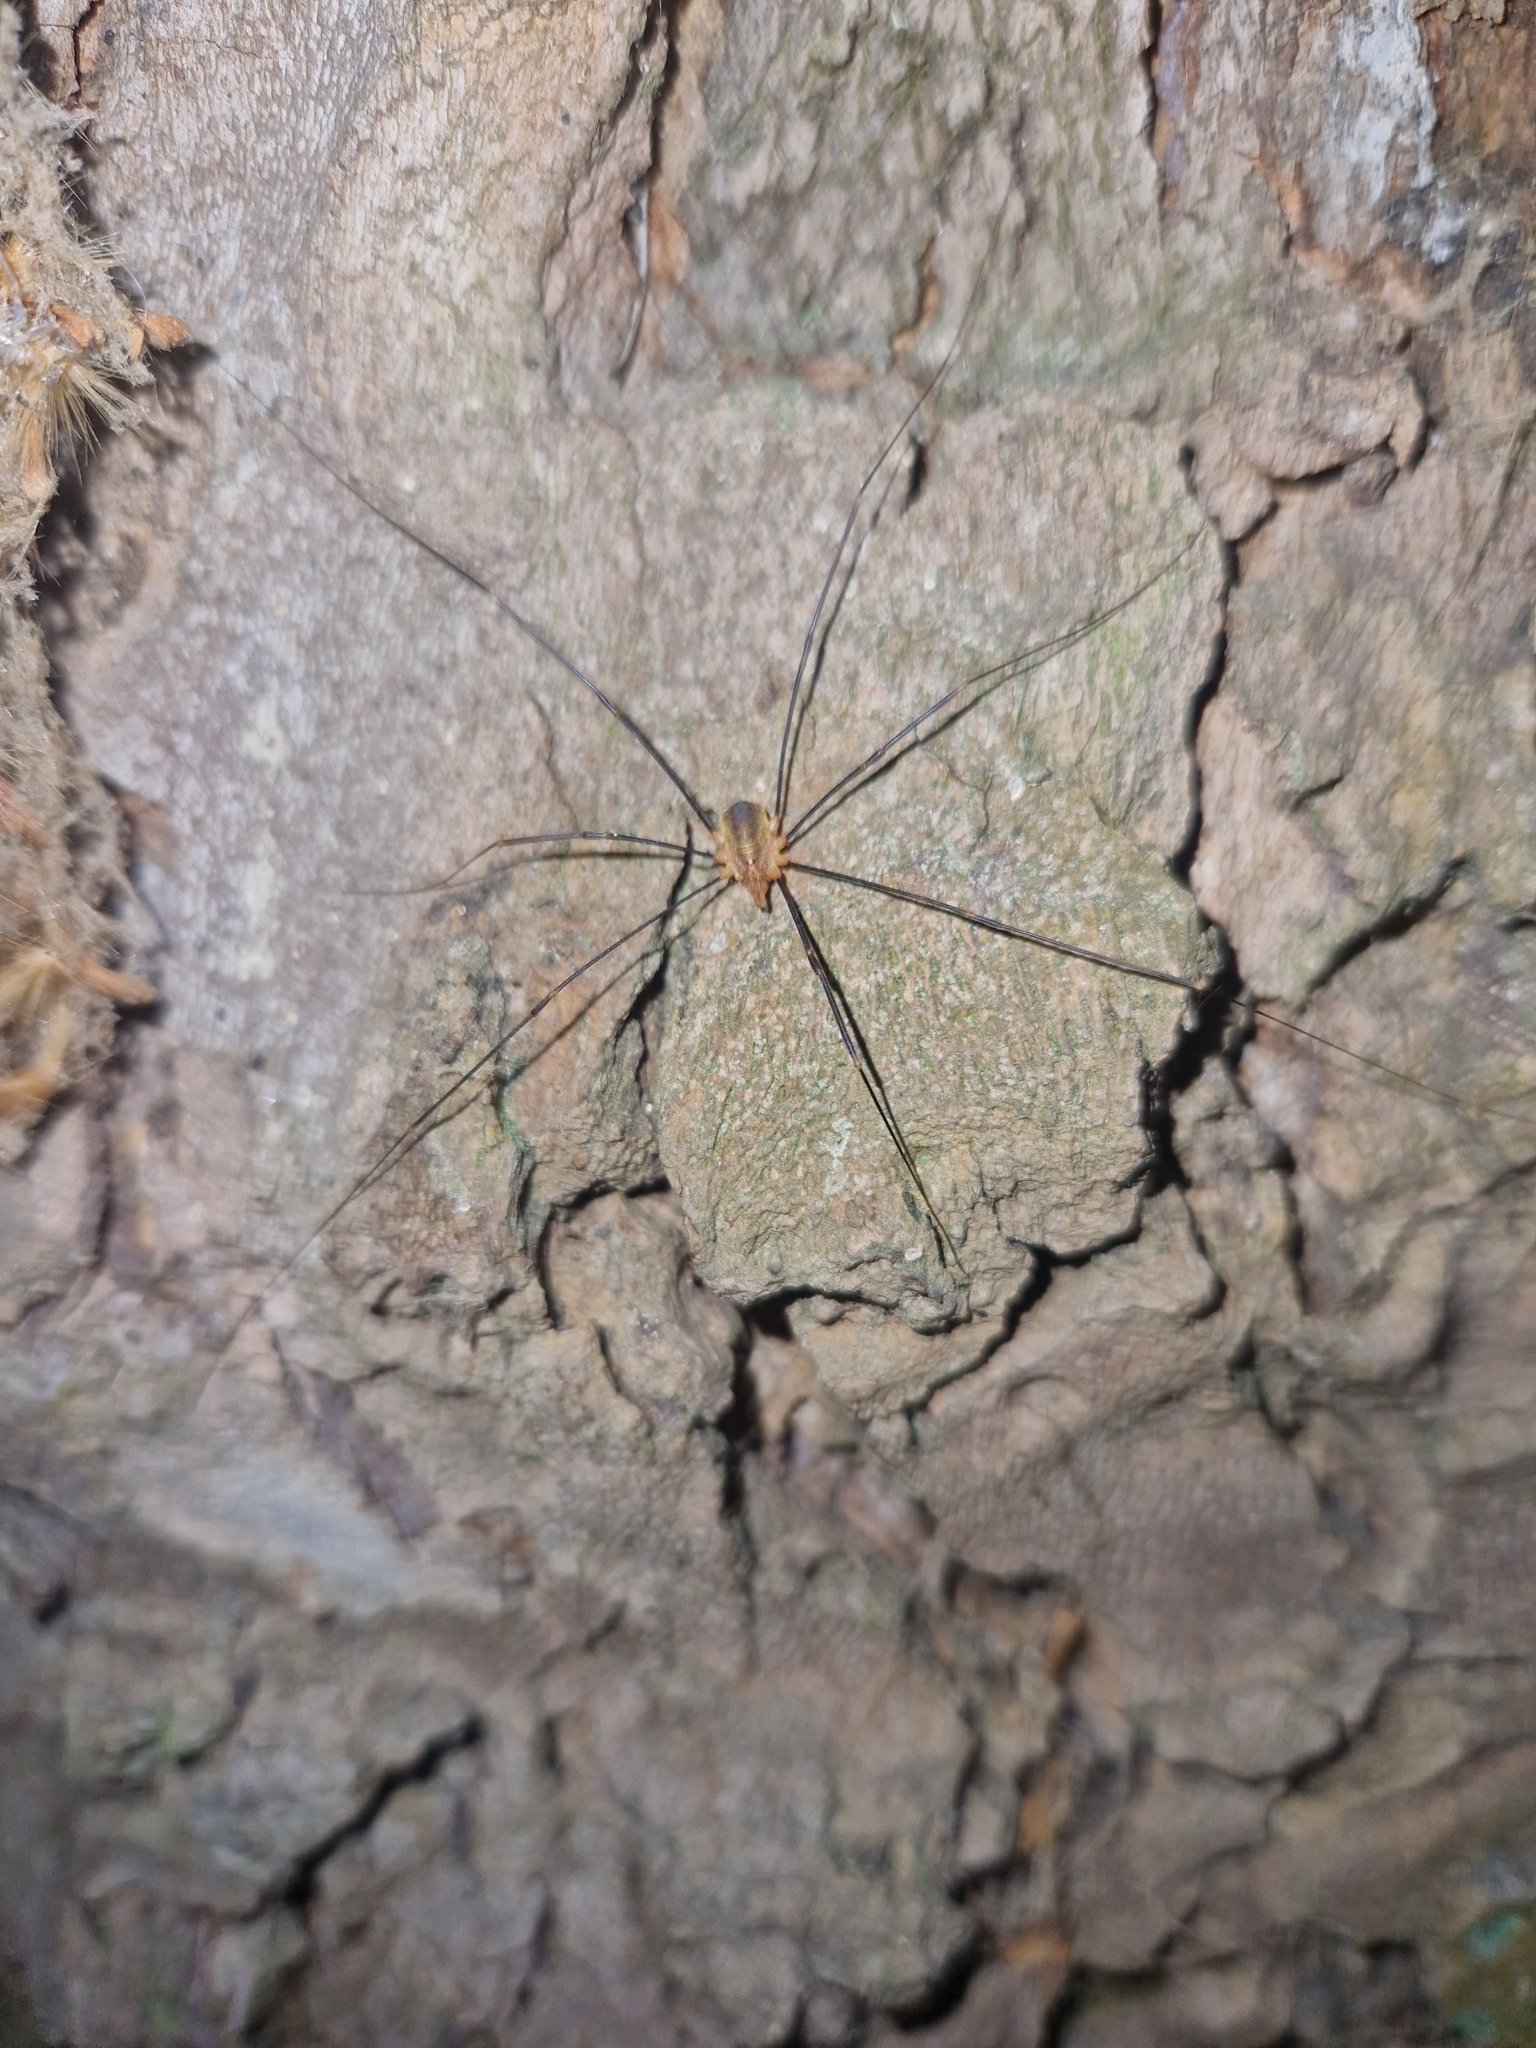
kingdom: Animalia
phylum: Arthropoda
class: Arachnida
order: Opiliones
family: Phalangiidae
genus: Opilio
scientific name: Opilio canestrinii
